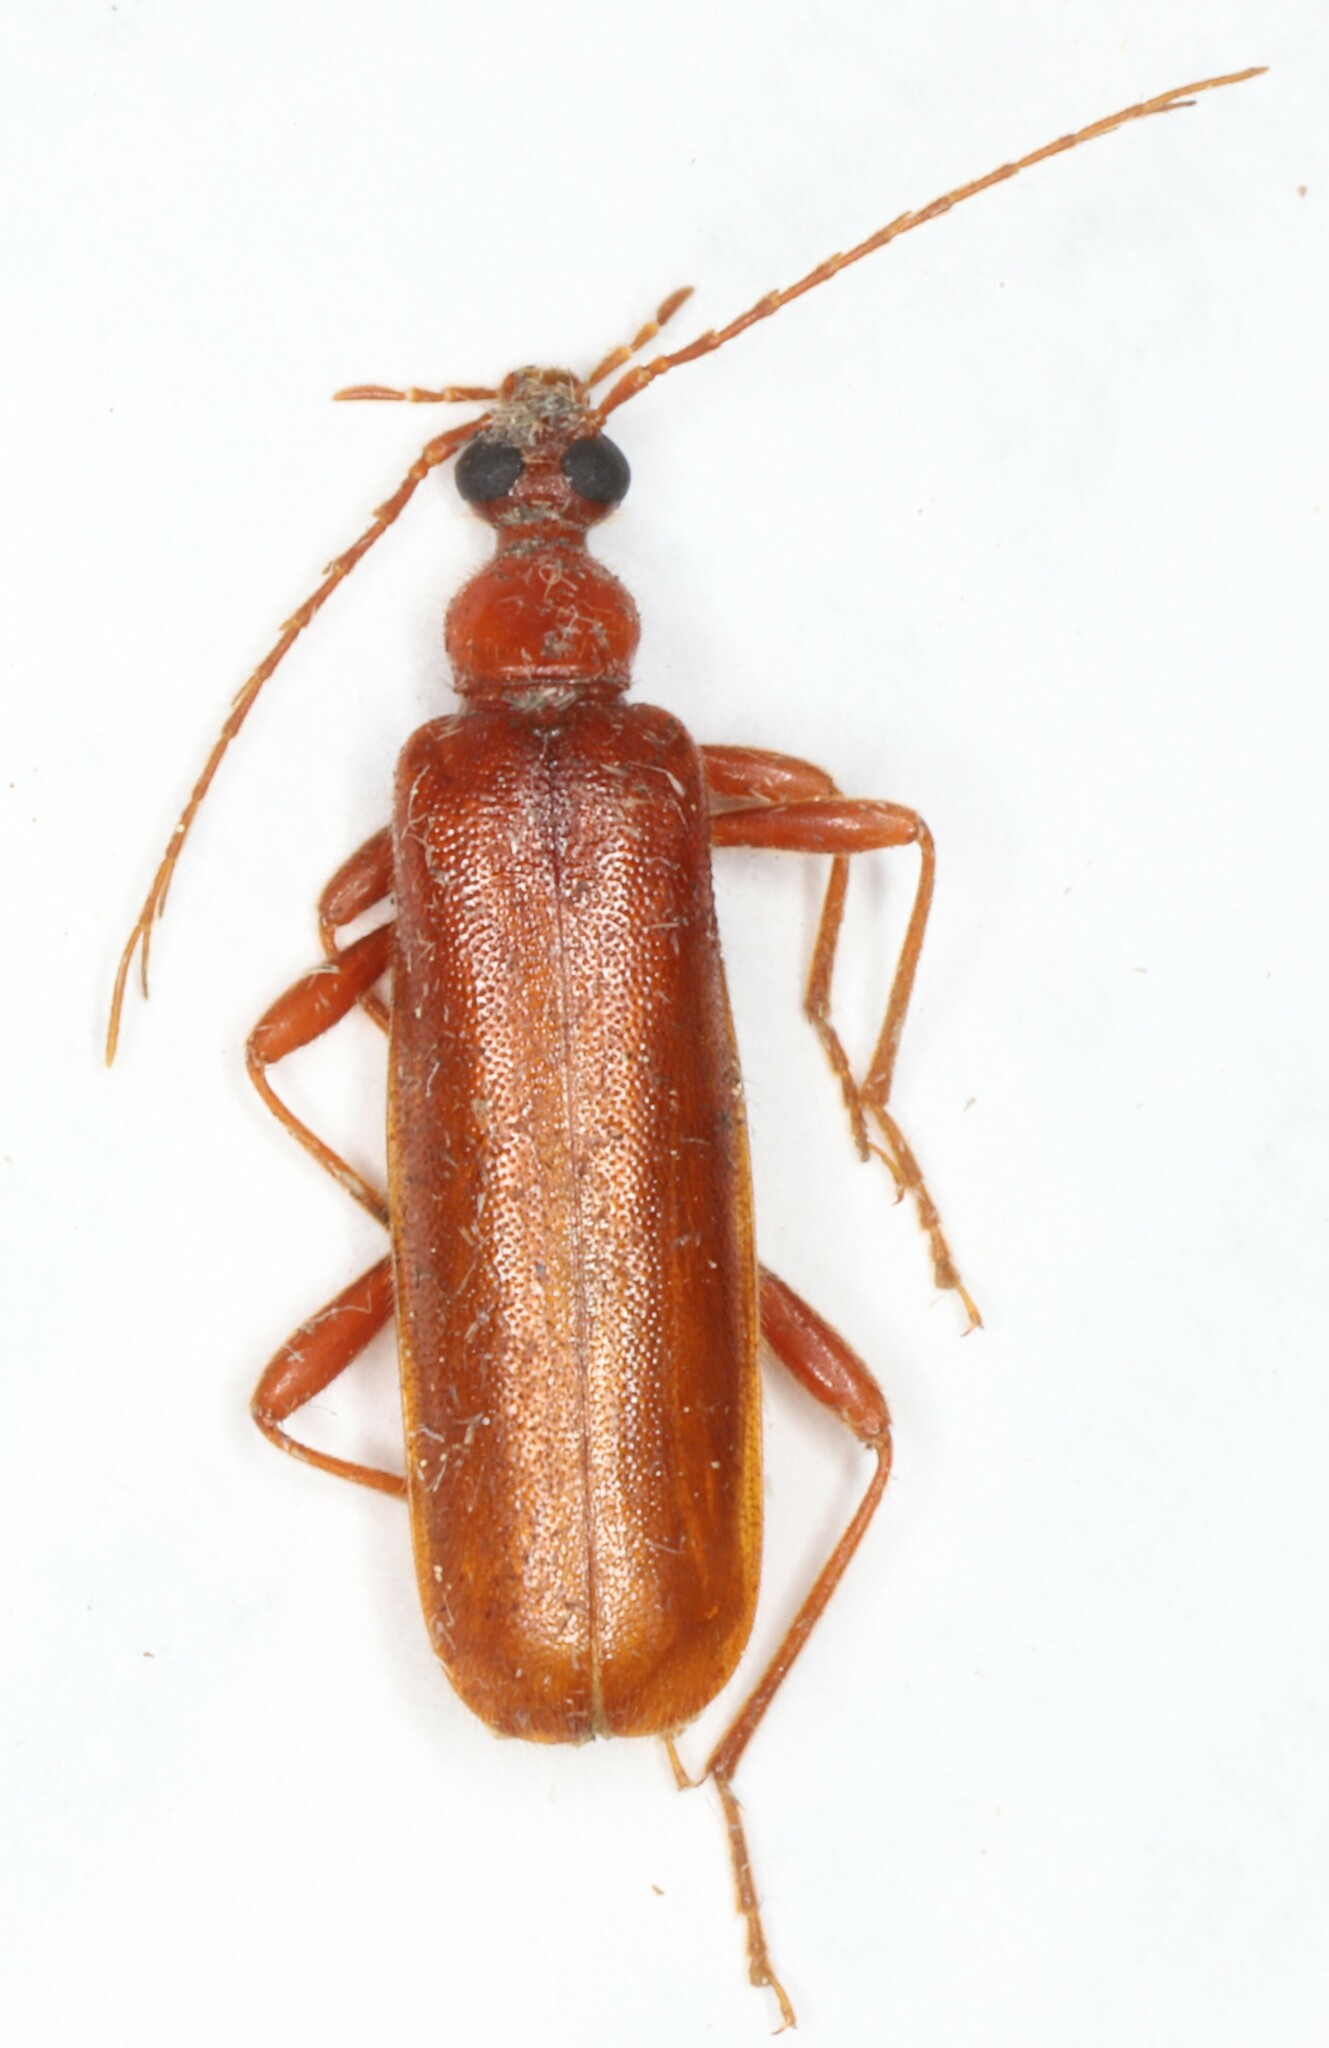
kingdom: Animalia
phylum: Arthropoda
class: Insecta
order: Coleoptera
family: Pyrochroidae
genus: Dendroides
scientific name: Dendroides concolor
